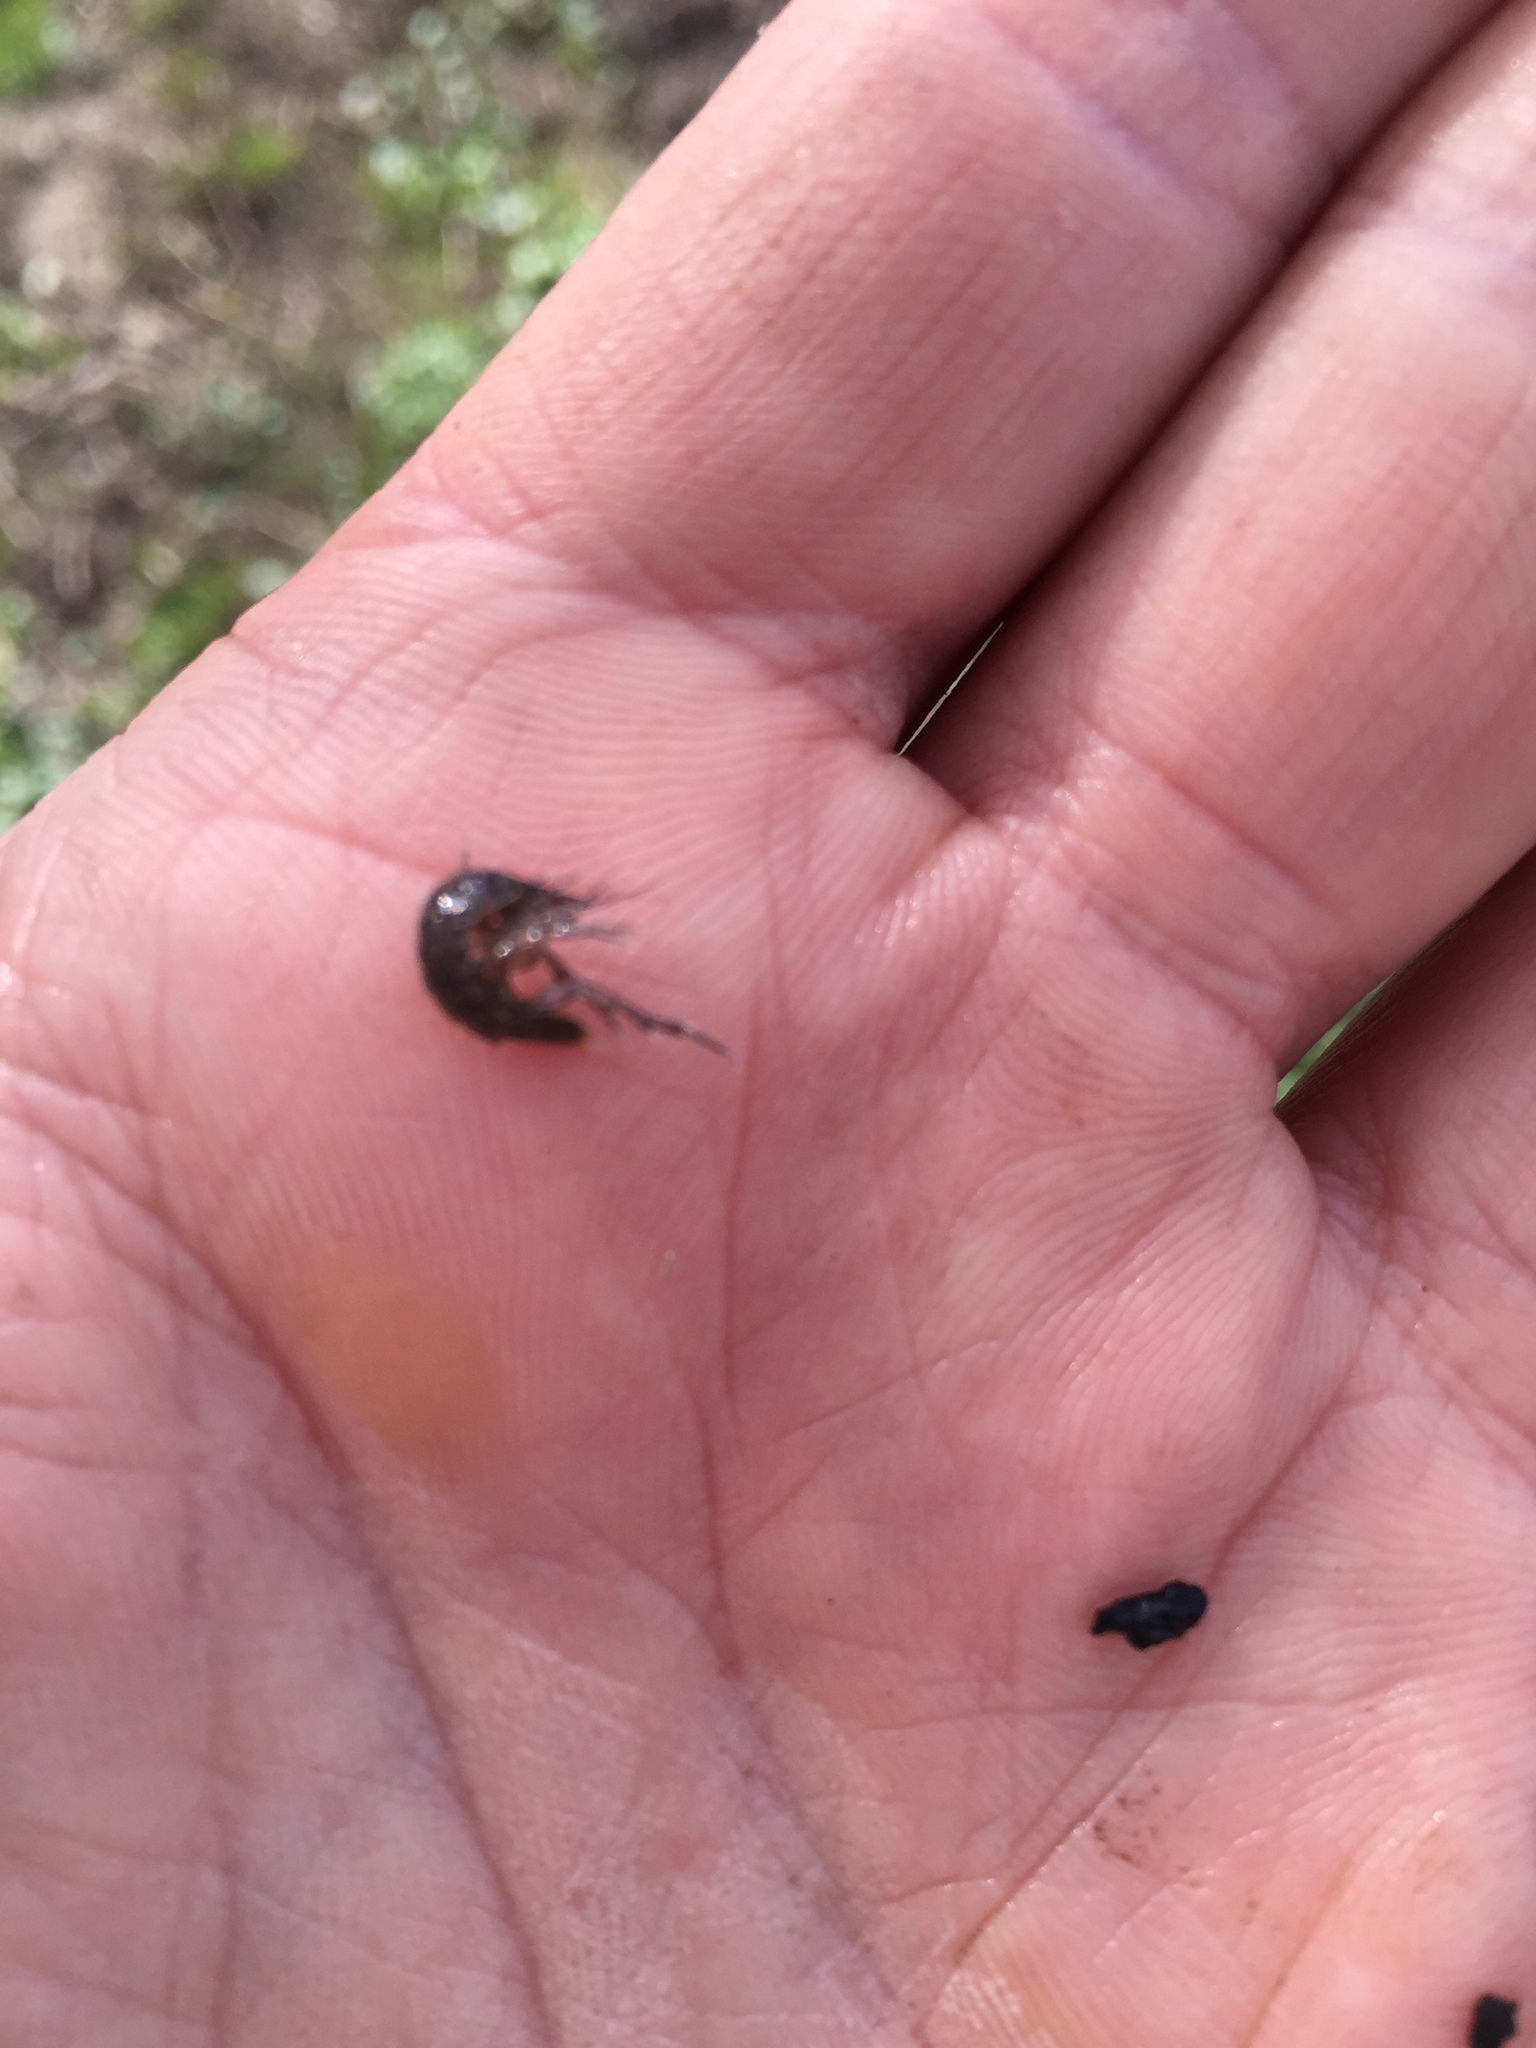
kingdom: Animalia
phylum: Arthropoda
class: Malacostraca
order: Isopoda
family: Asellidae
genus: Asellus
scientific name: Asellus aquaticus
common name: Water hog lice/slaters
